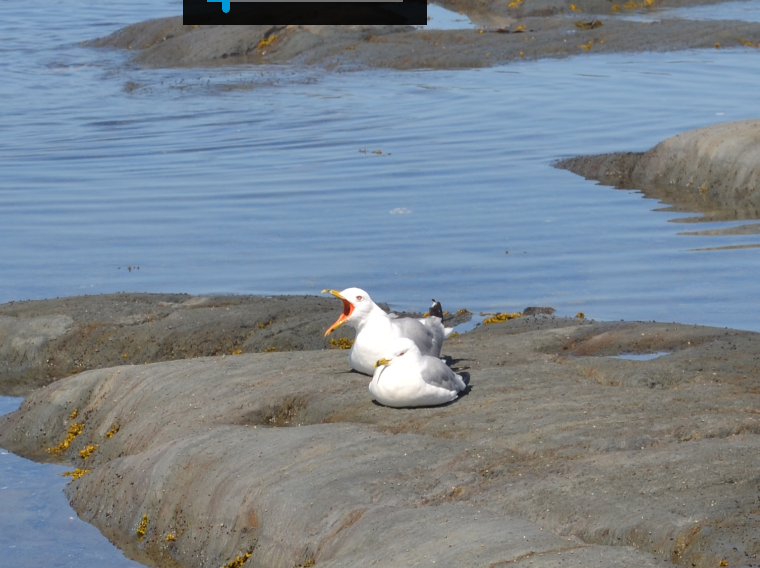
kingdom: Animalia
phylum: Chordata
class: Aves
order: Charadriiformes
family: Laridae
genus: Larus
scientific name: Larus delawarensis
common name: Ring-billed gull
